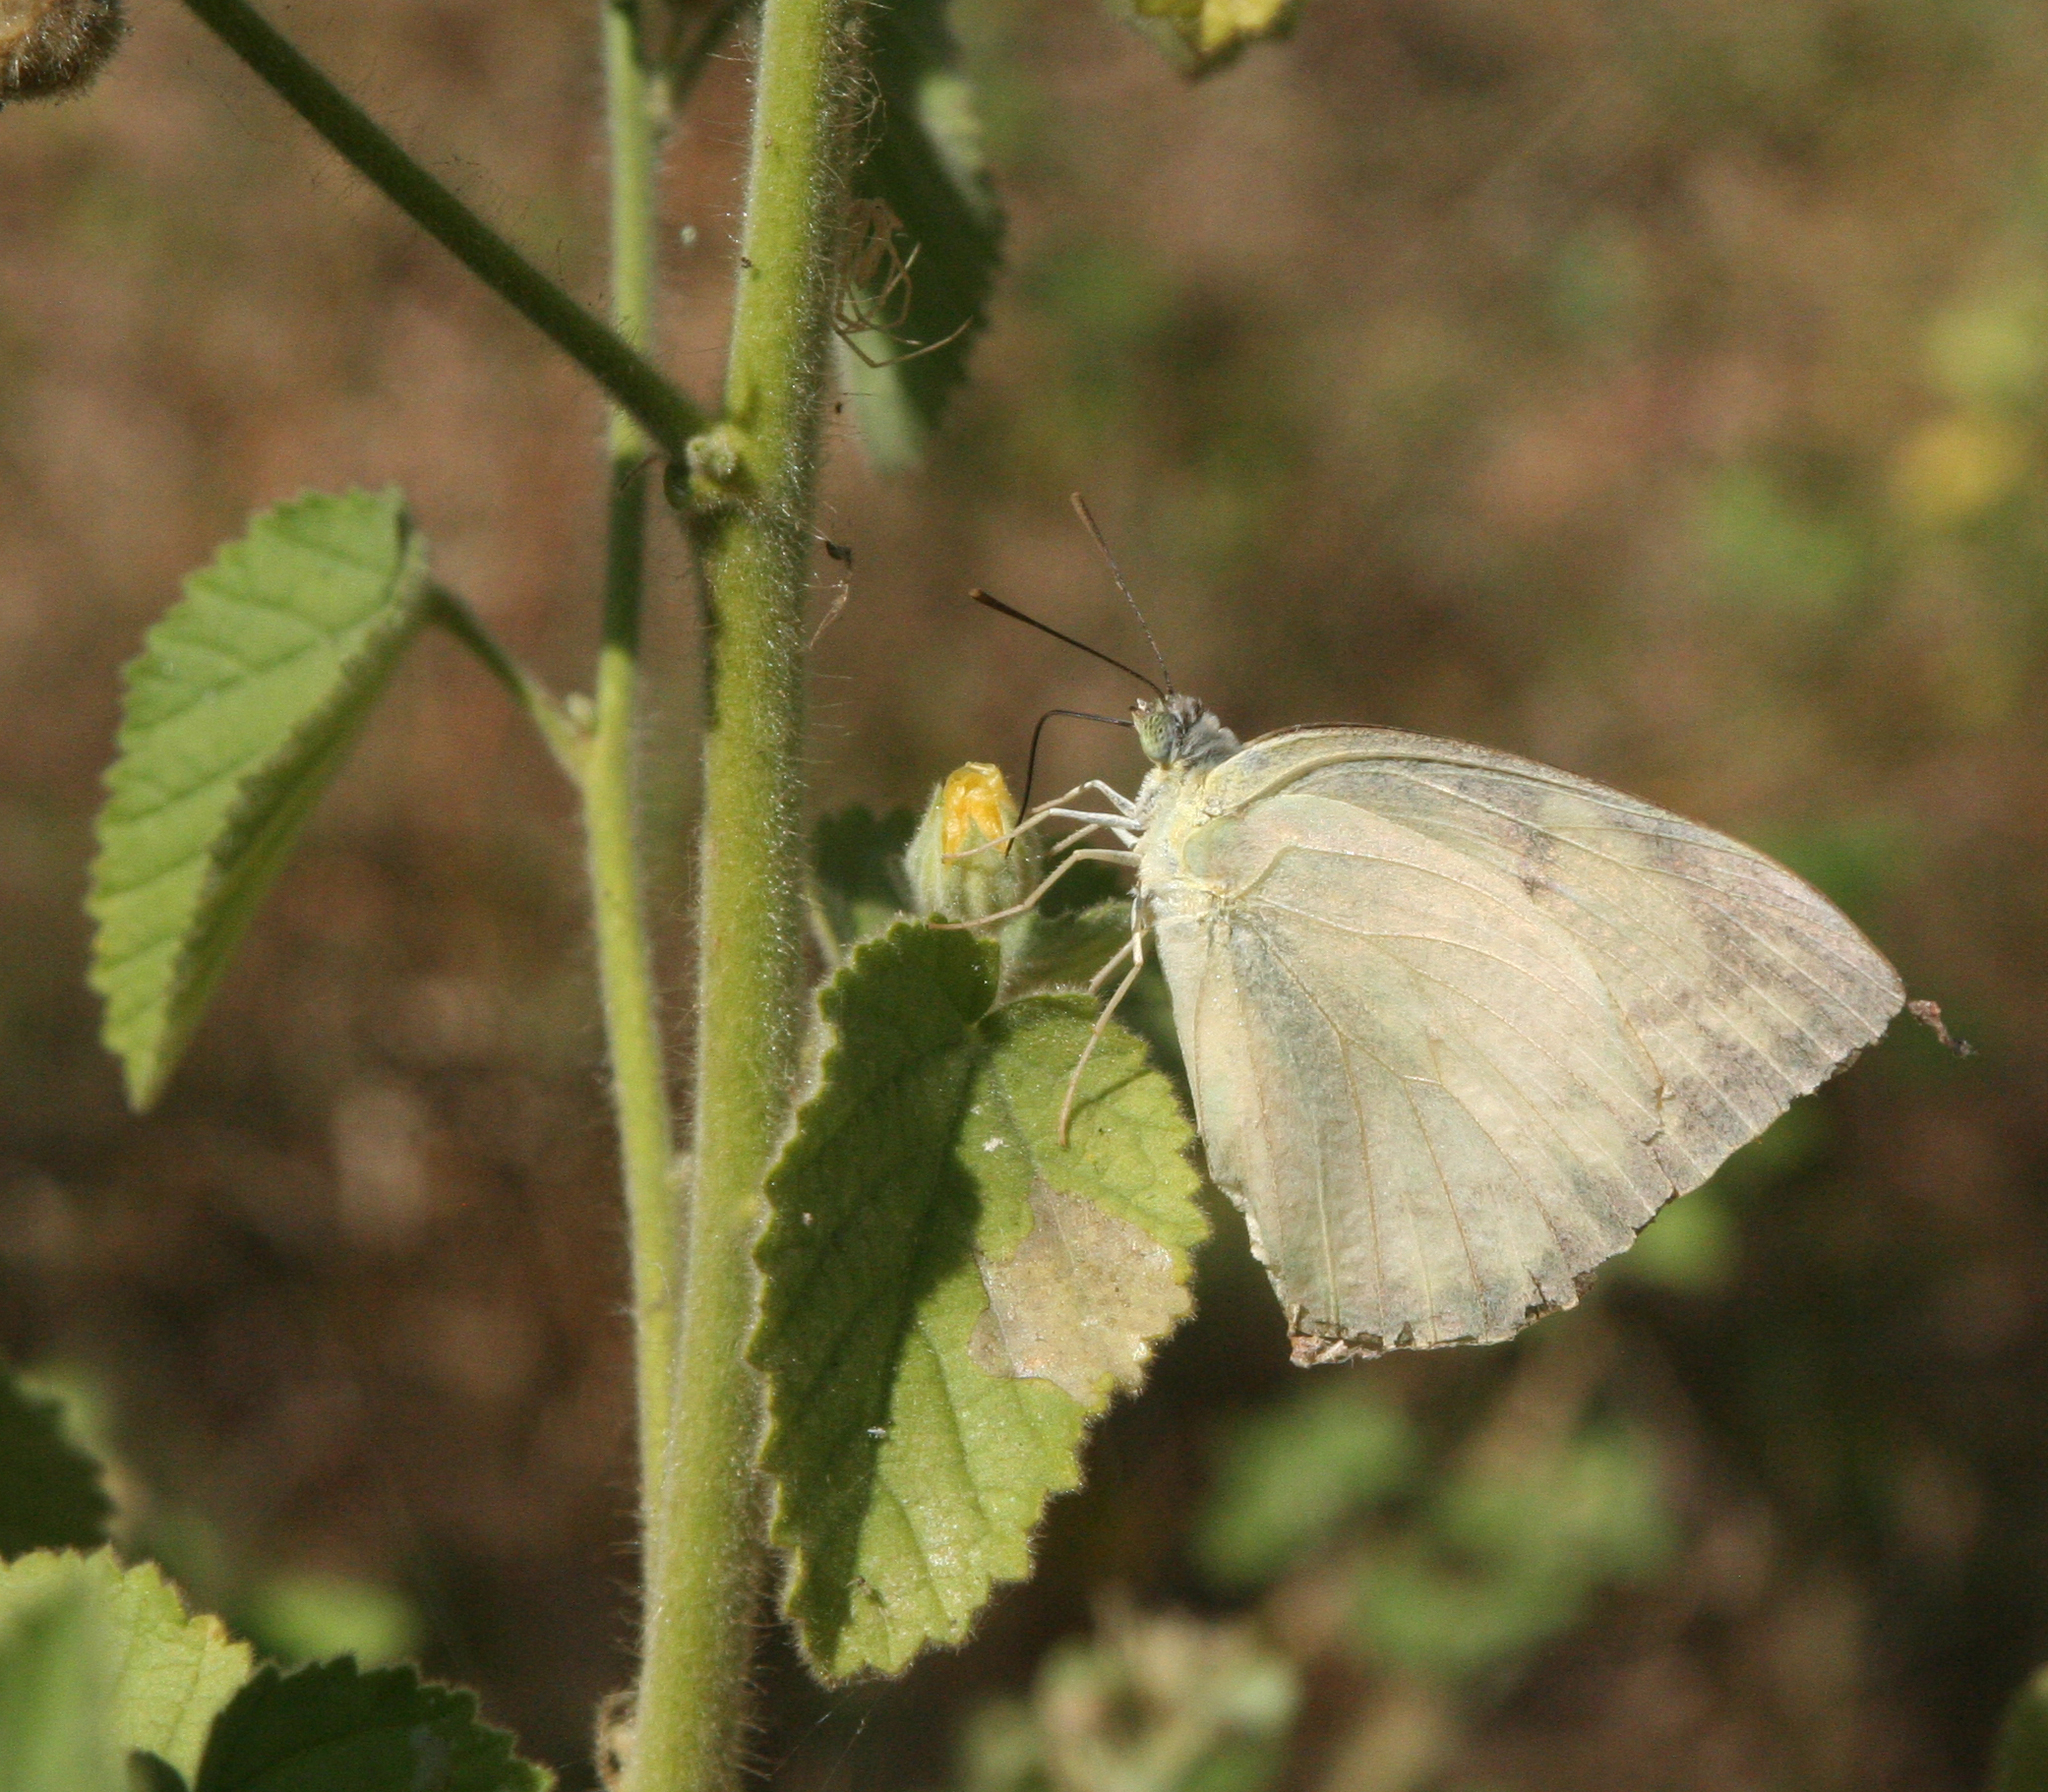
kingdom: Animalia
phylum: Arthropoda
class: Insecta
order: Lepidoptera
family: Pieridae
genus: Catopsilia
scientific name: Catopsilia pomona
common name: Common emigrant
